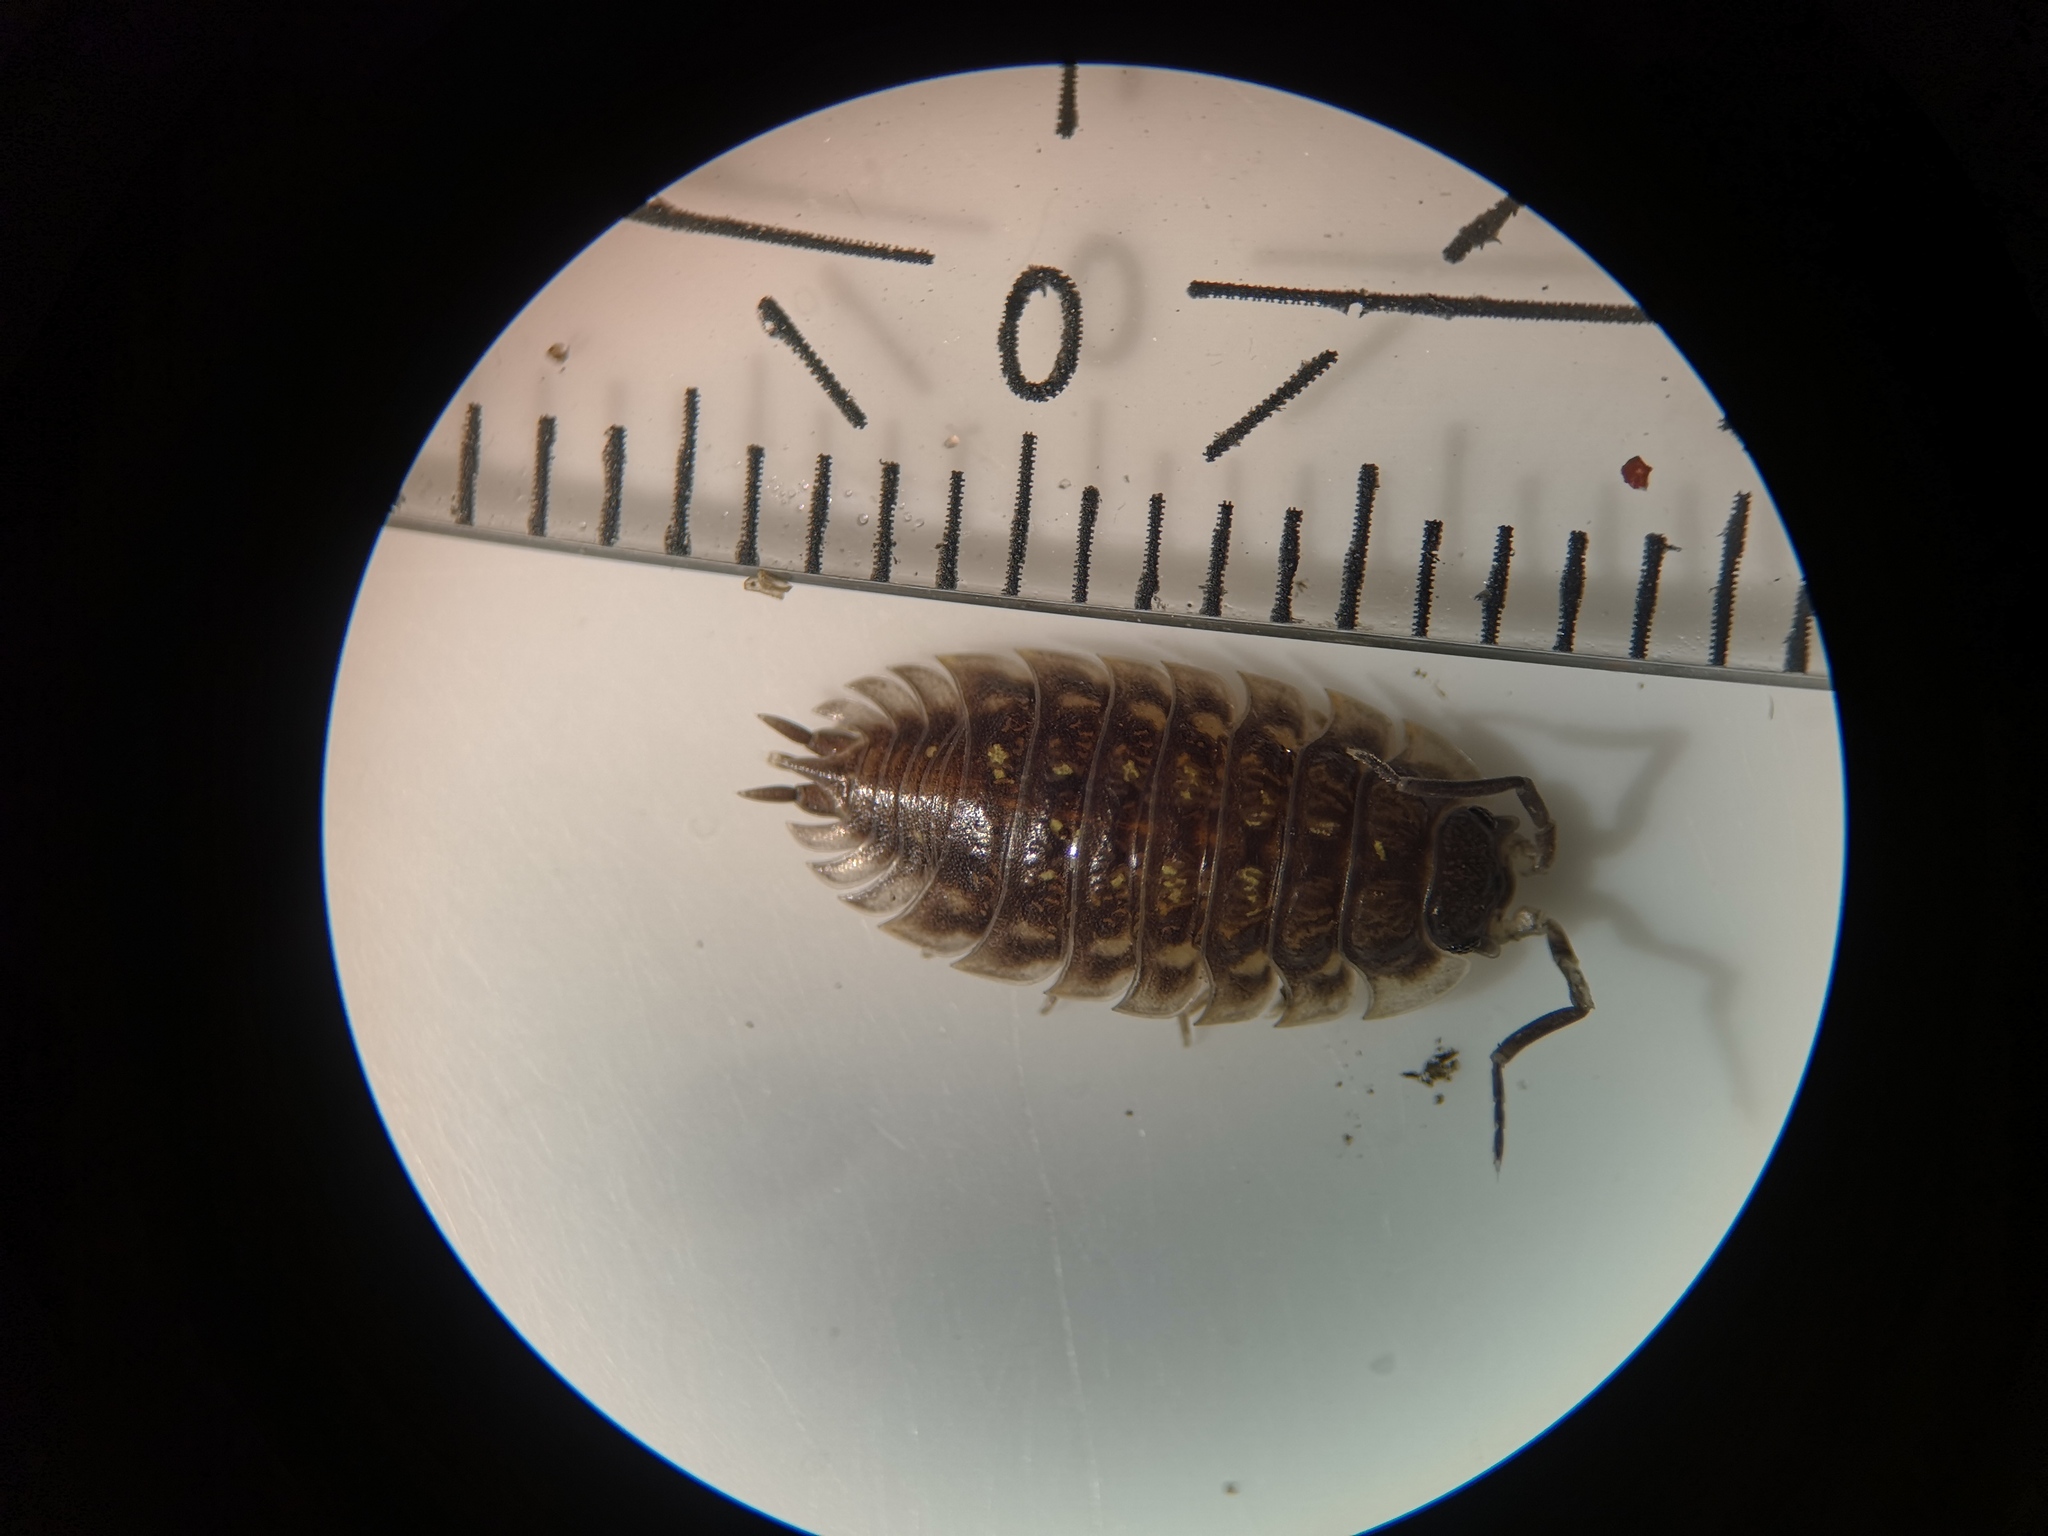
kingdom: Animalia
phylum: Arthropoda
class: Malacostraca
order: Isopoda
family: Oniscidae
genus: Oniscus
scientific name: Oniscus asellus
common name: Common shiny woodlouse
